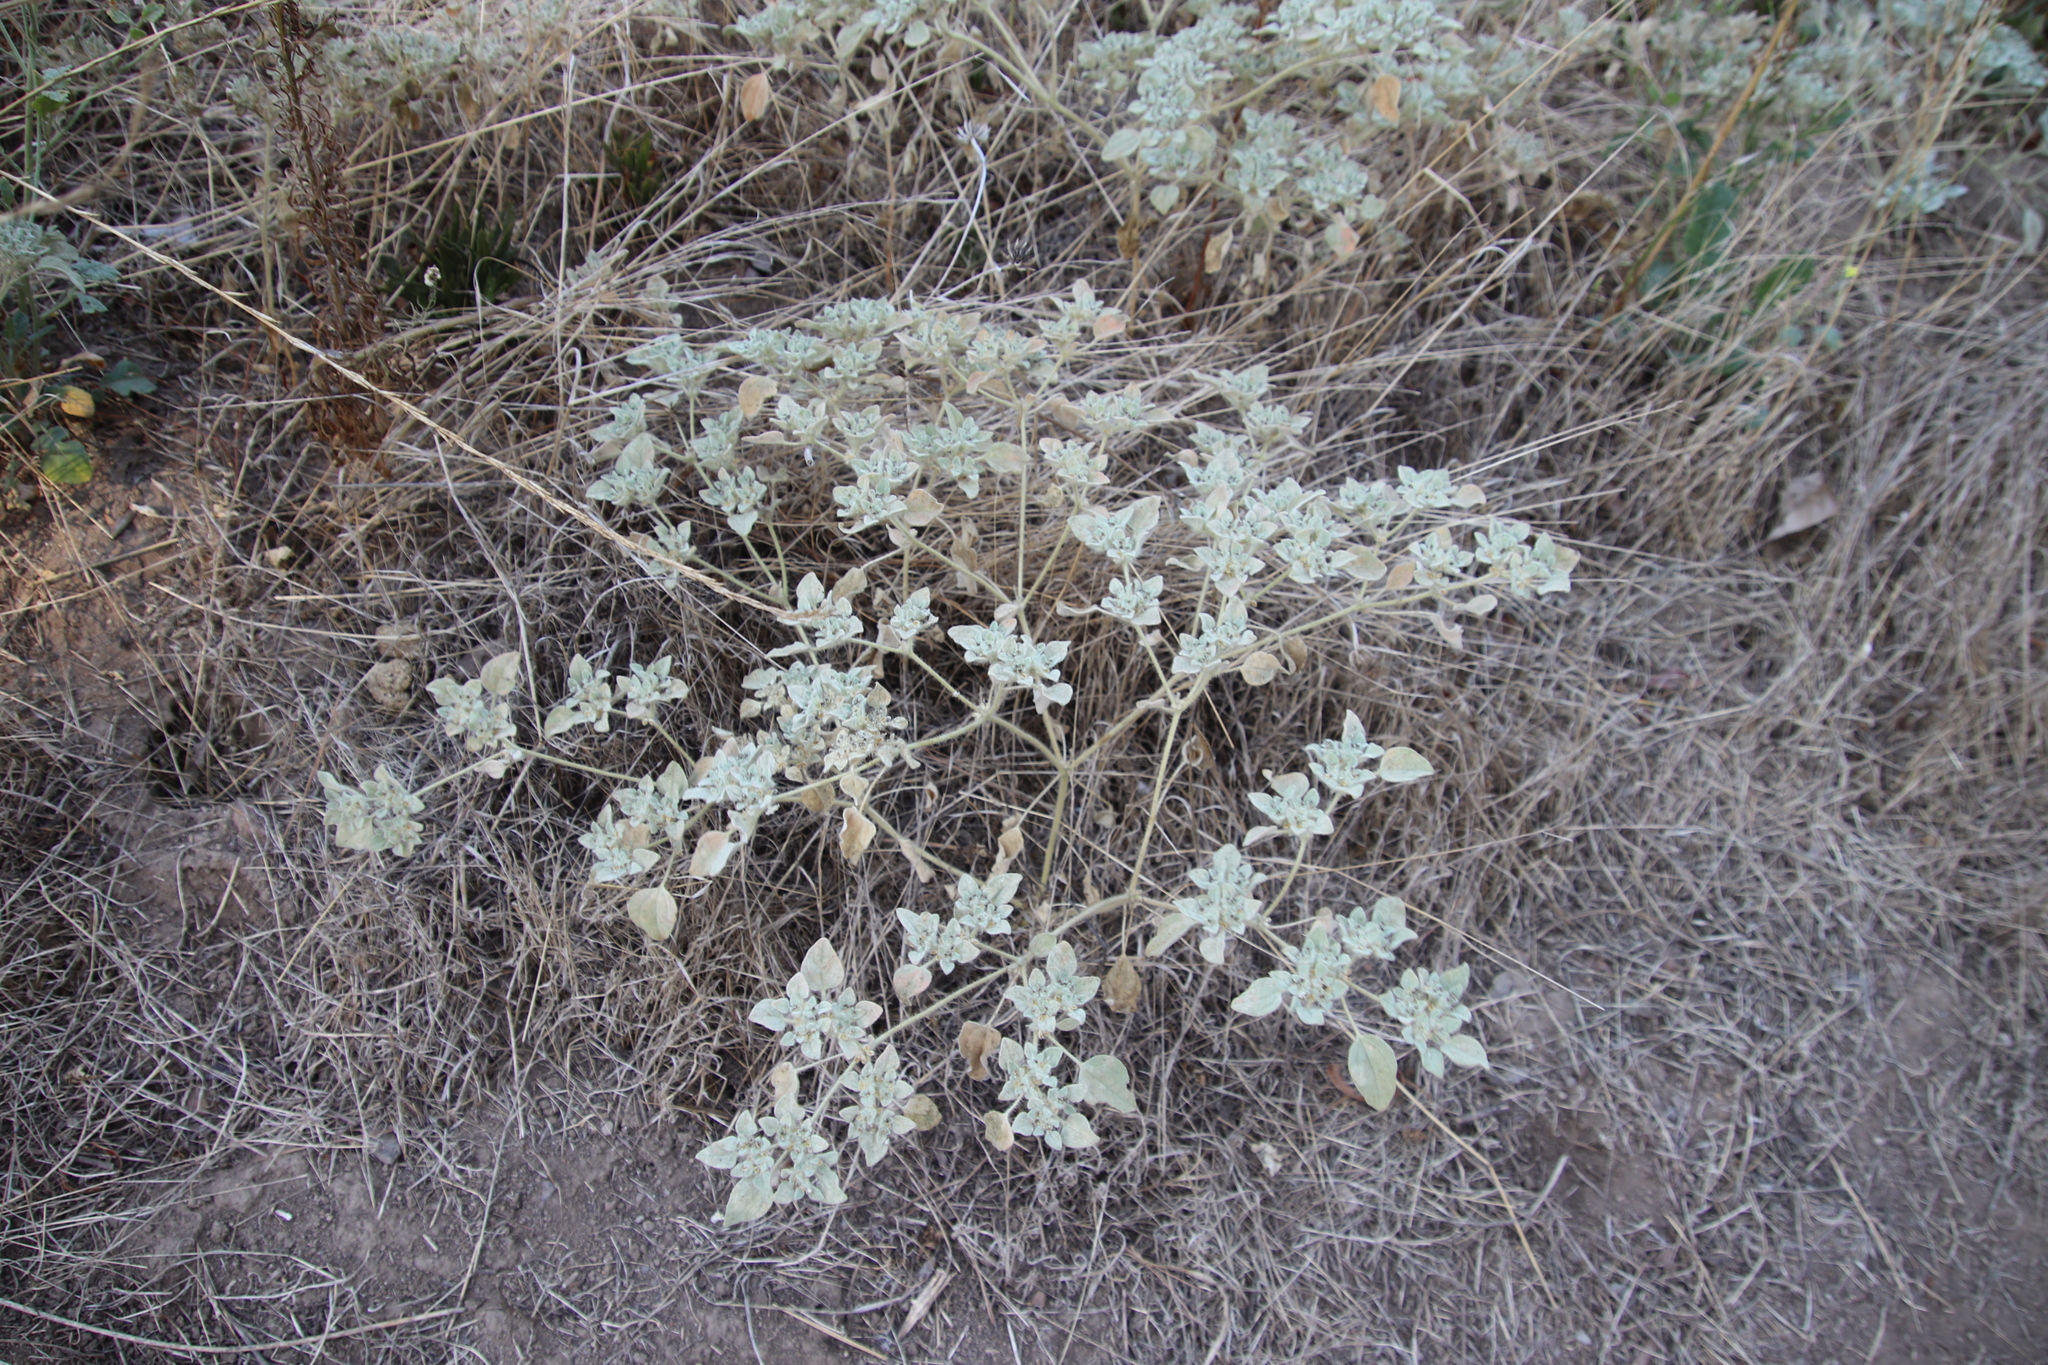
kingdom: Plantae
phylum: Tracheophyta
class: Magnoliopsida
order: Malpighiales
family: Euphorbiaceae
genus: Croton
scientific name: Croton setiger
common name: Dove weed
